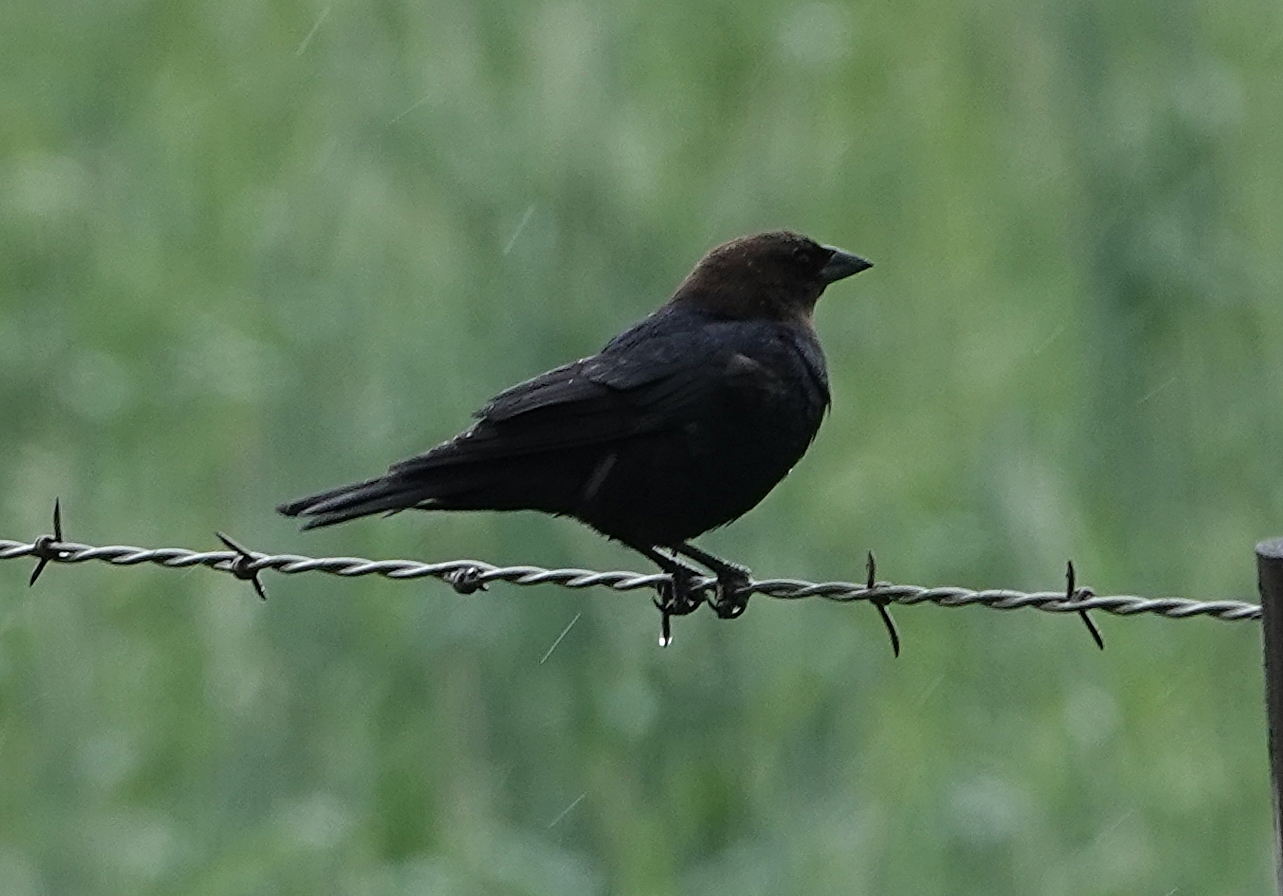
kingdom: Animalia
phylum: Chordata
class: Aves
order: Passeriformes
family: Icteridae
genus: Molothrus
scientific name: Molothrus ater
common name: Brown-headed cowbird
